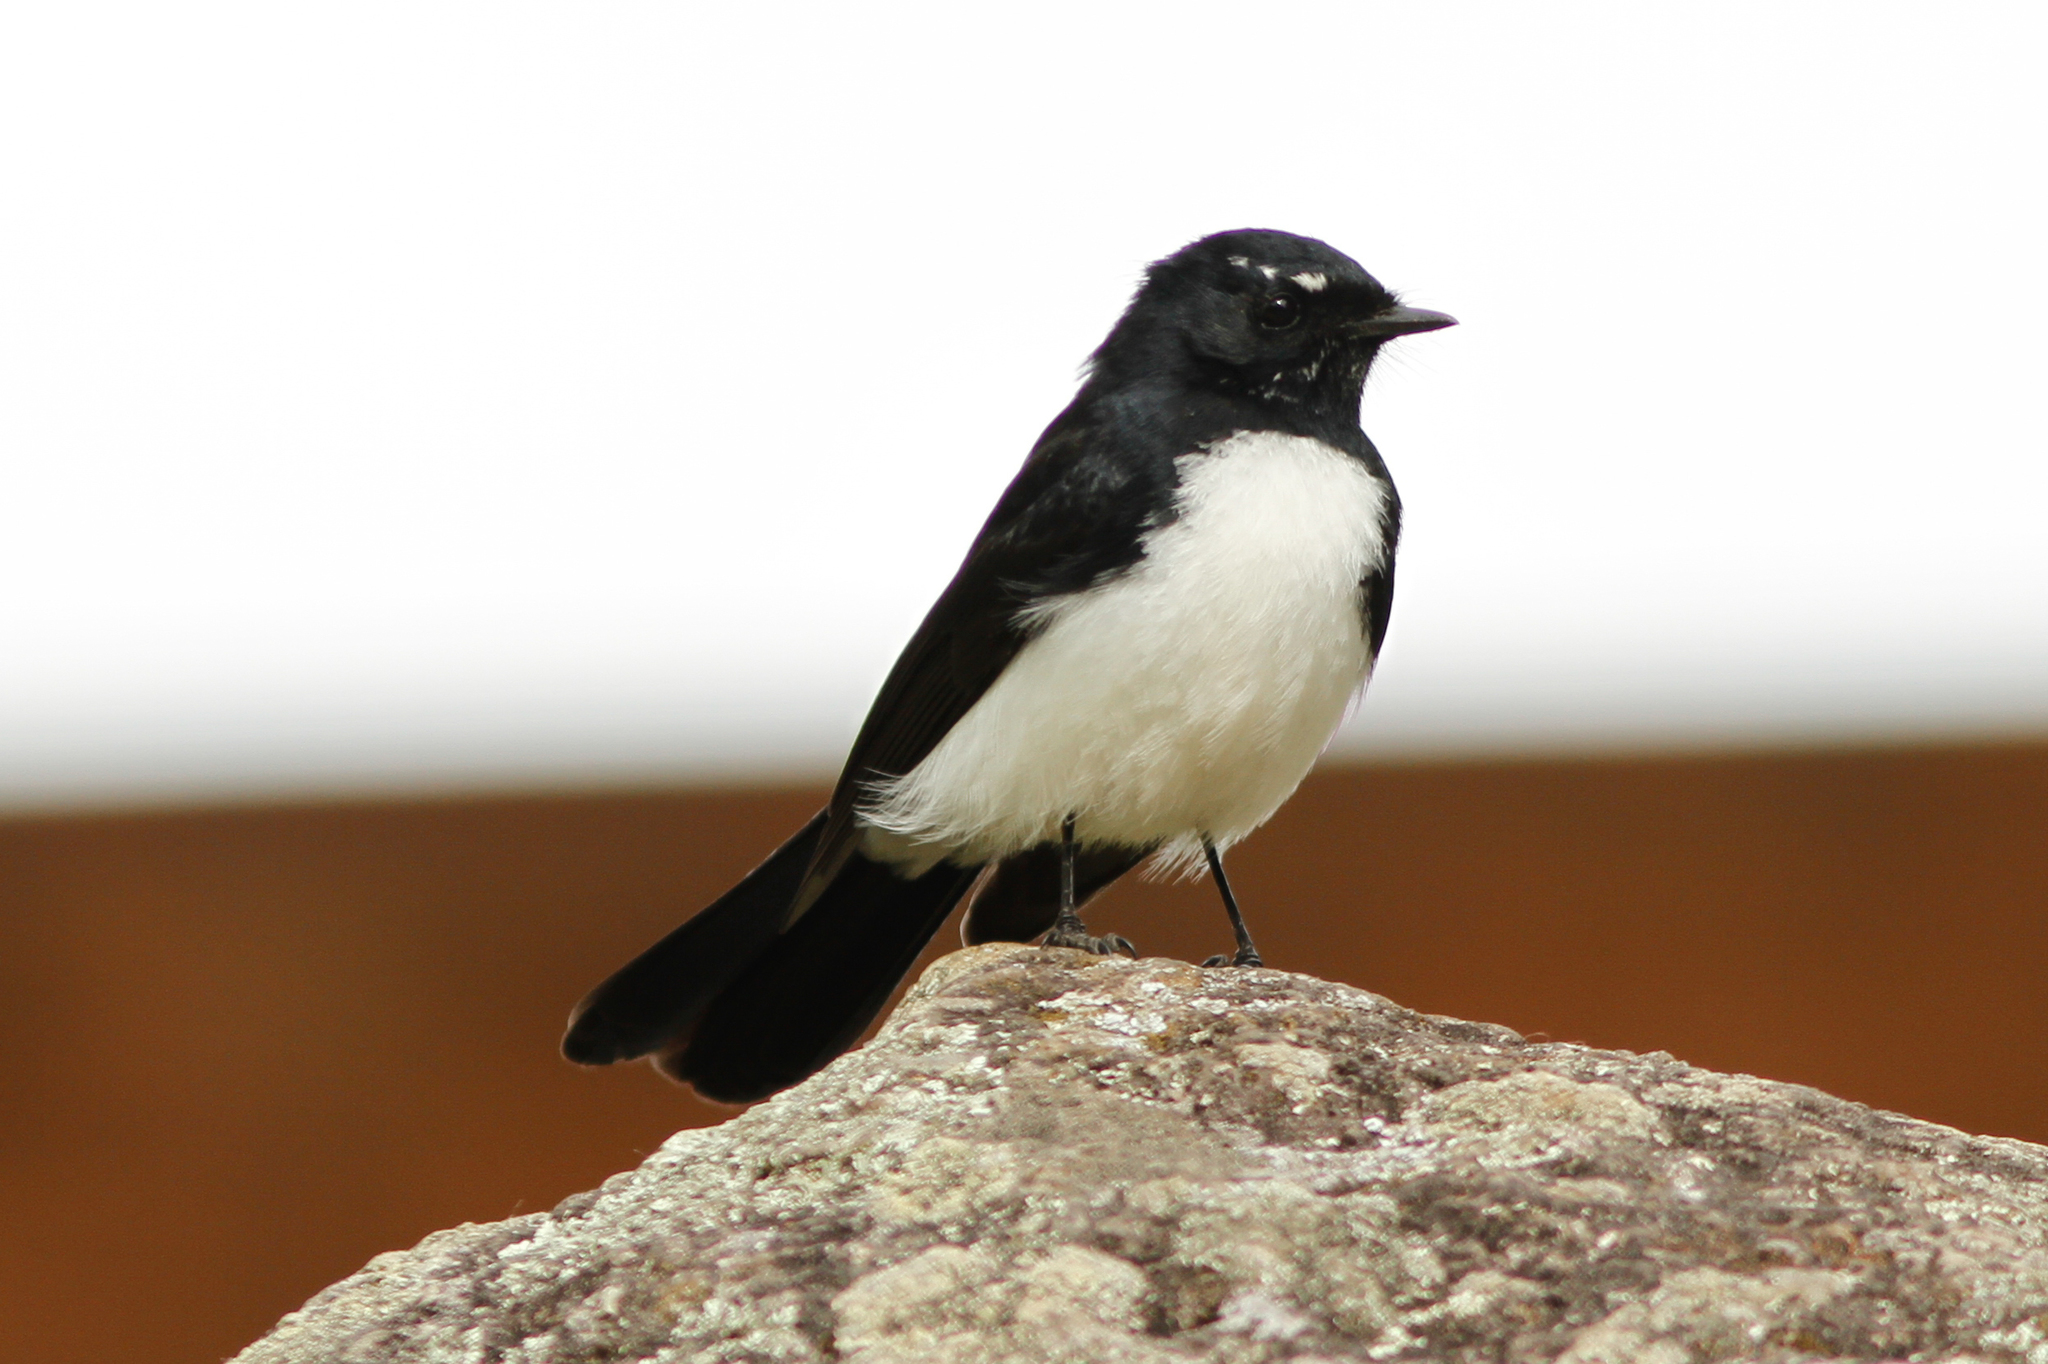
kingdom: Animalia
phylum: Chordata
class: Aves
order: Passeriformes
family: Rhipiduridae
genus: Rhipidura
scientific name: Rhipidura leucophrys
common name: Willie wagtail
